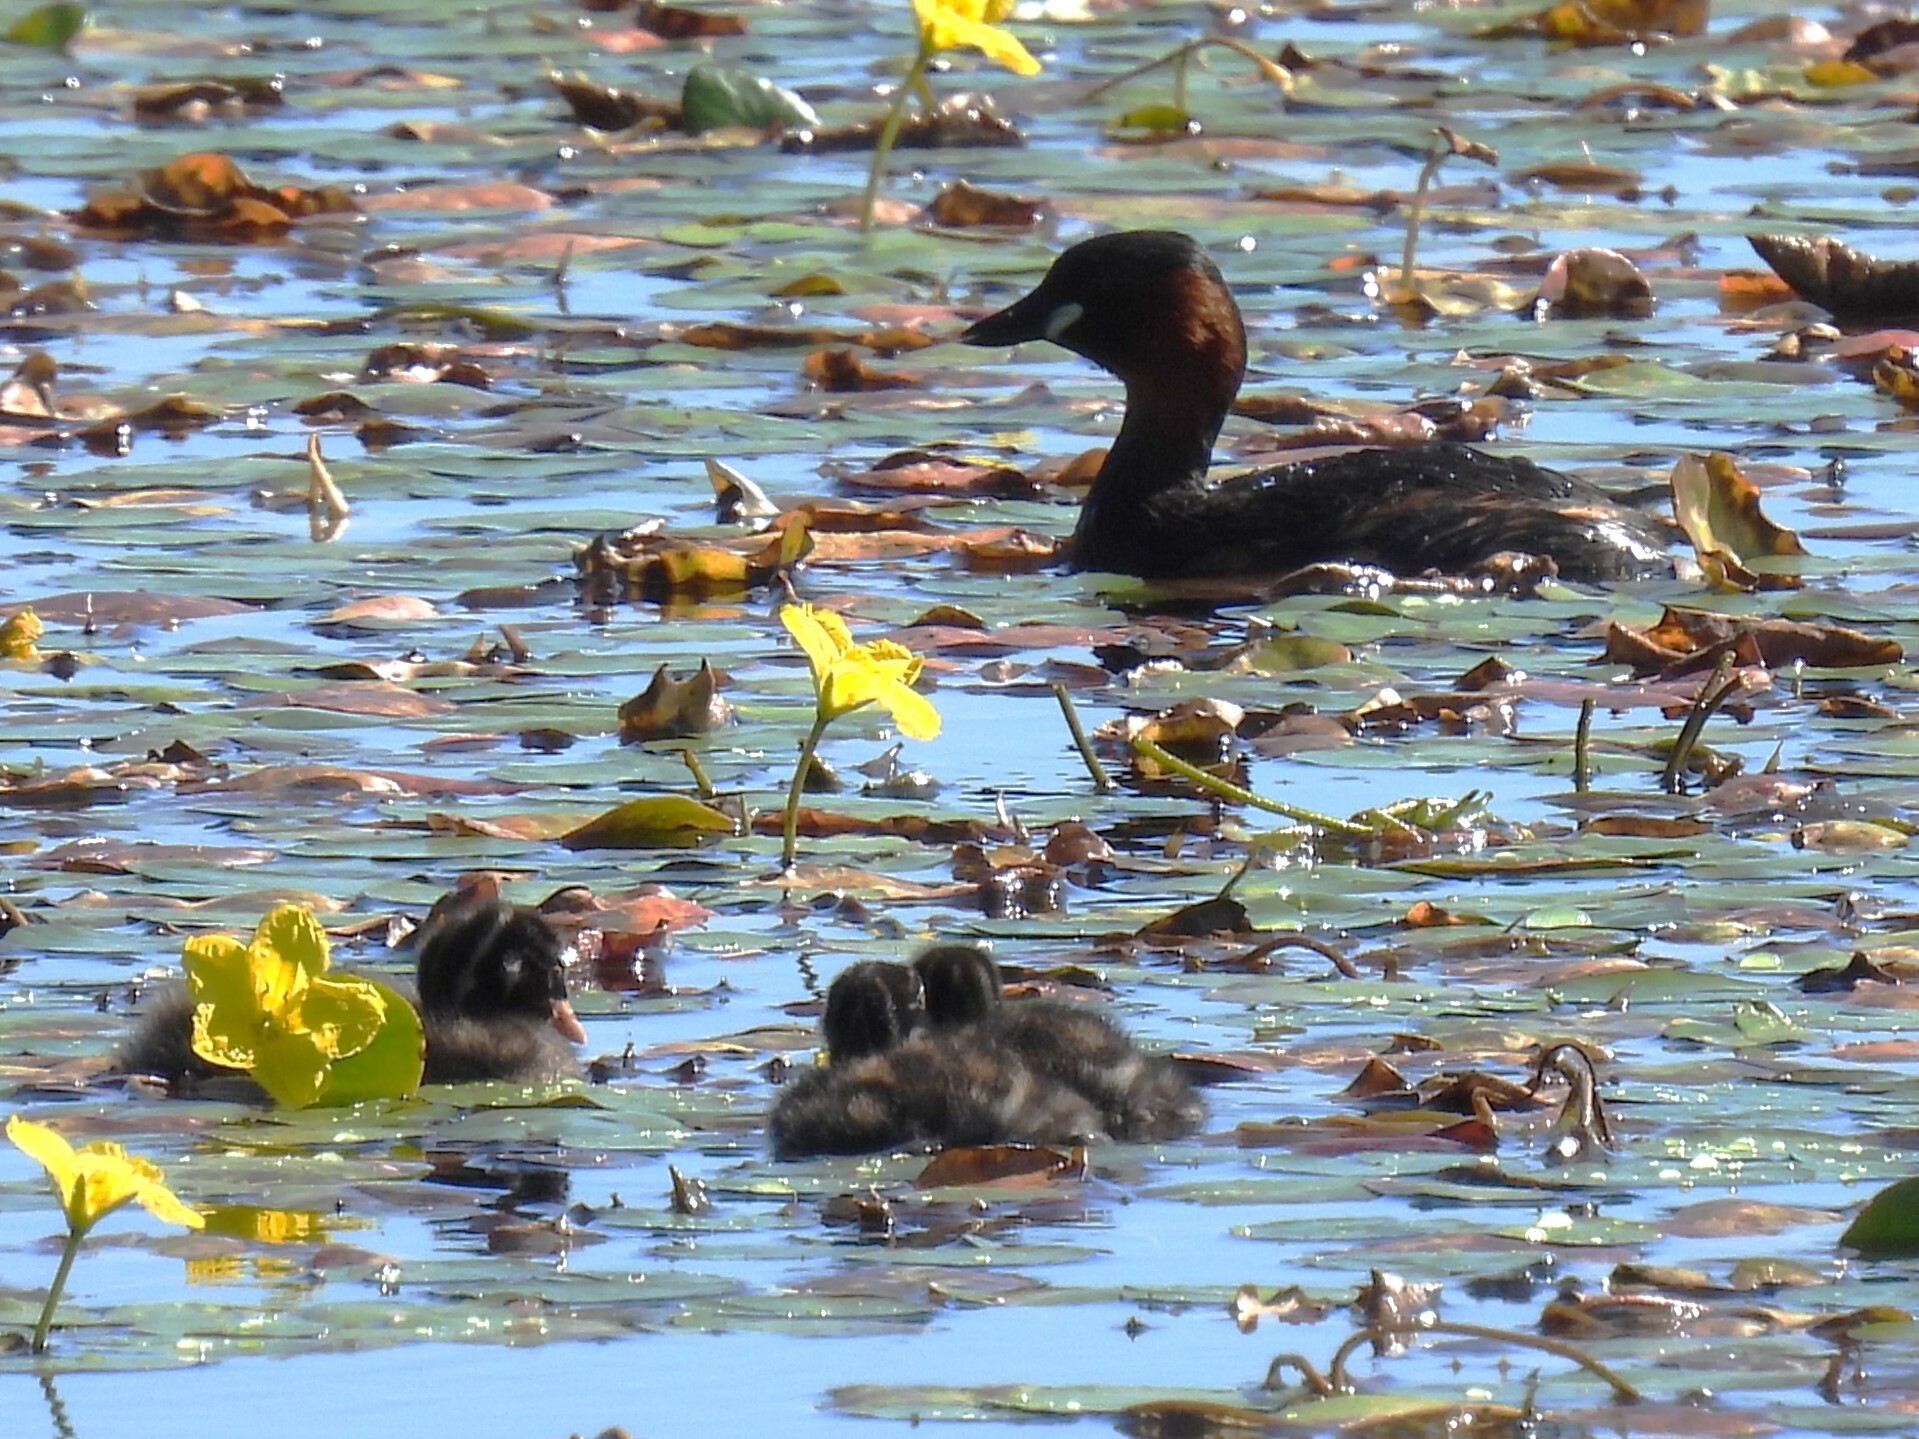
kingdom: Animalia
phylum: Chordata
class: Aves
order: Podicipediformes
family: Podicipedidae
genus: Tachybaptus
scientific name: Tachybaptus ruficollis
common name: Little grebe
